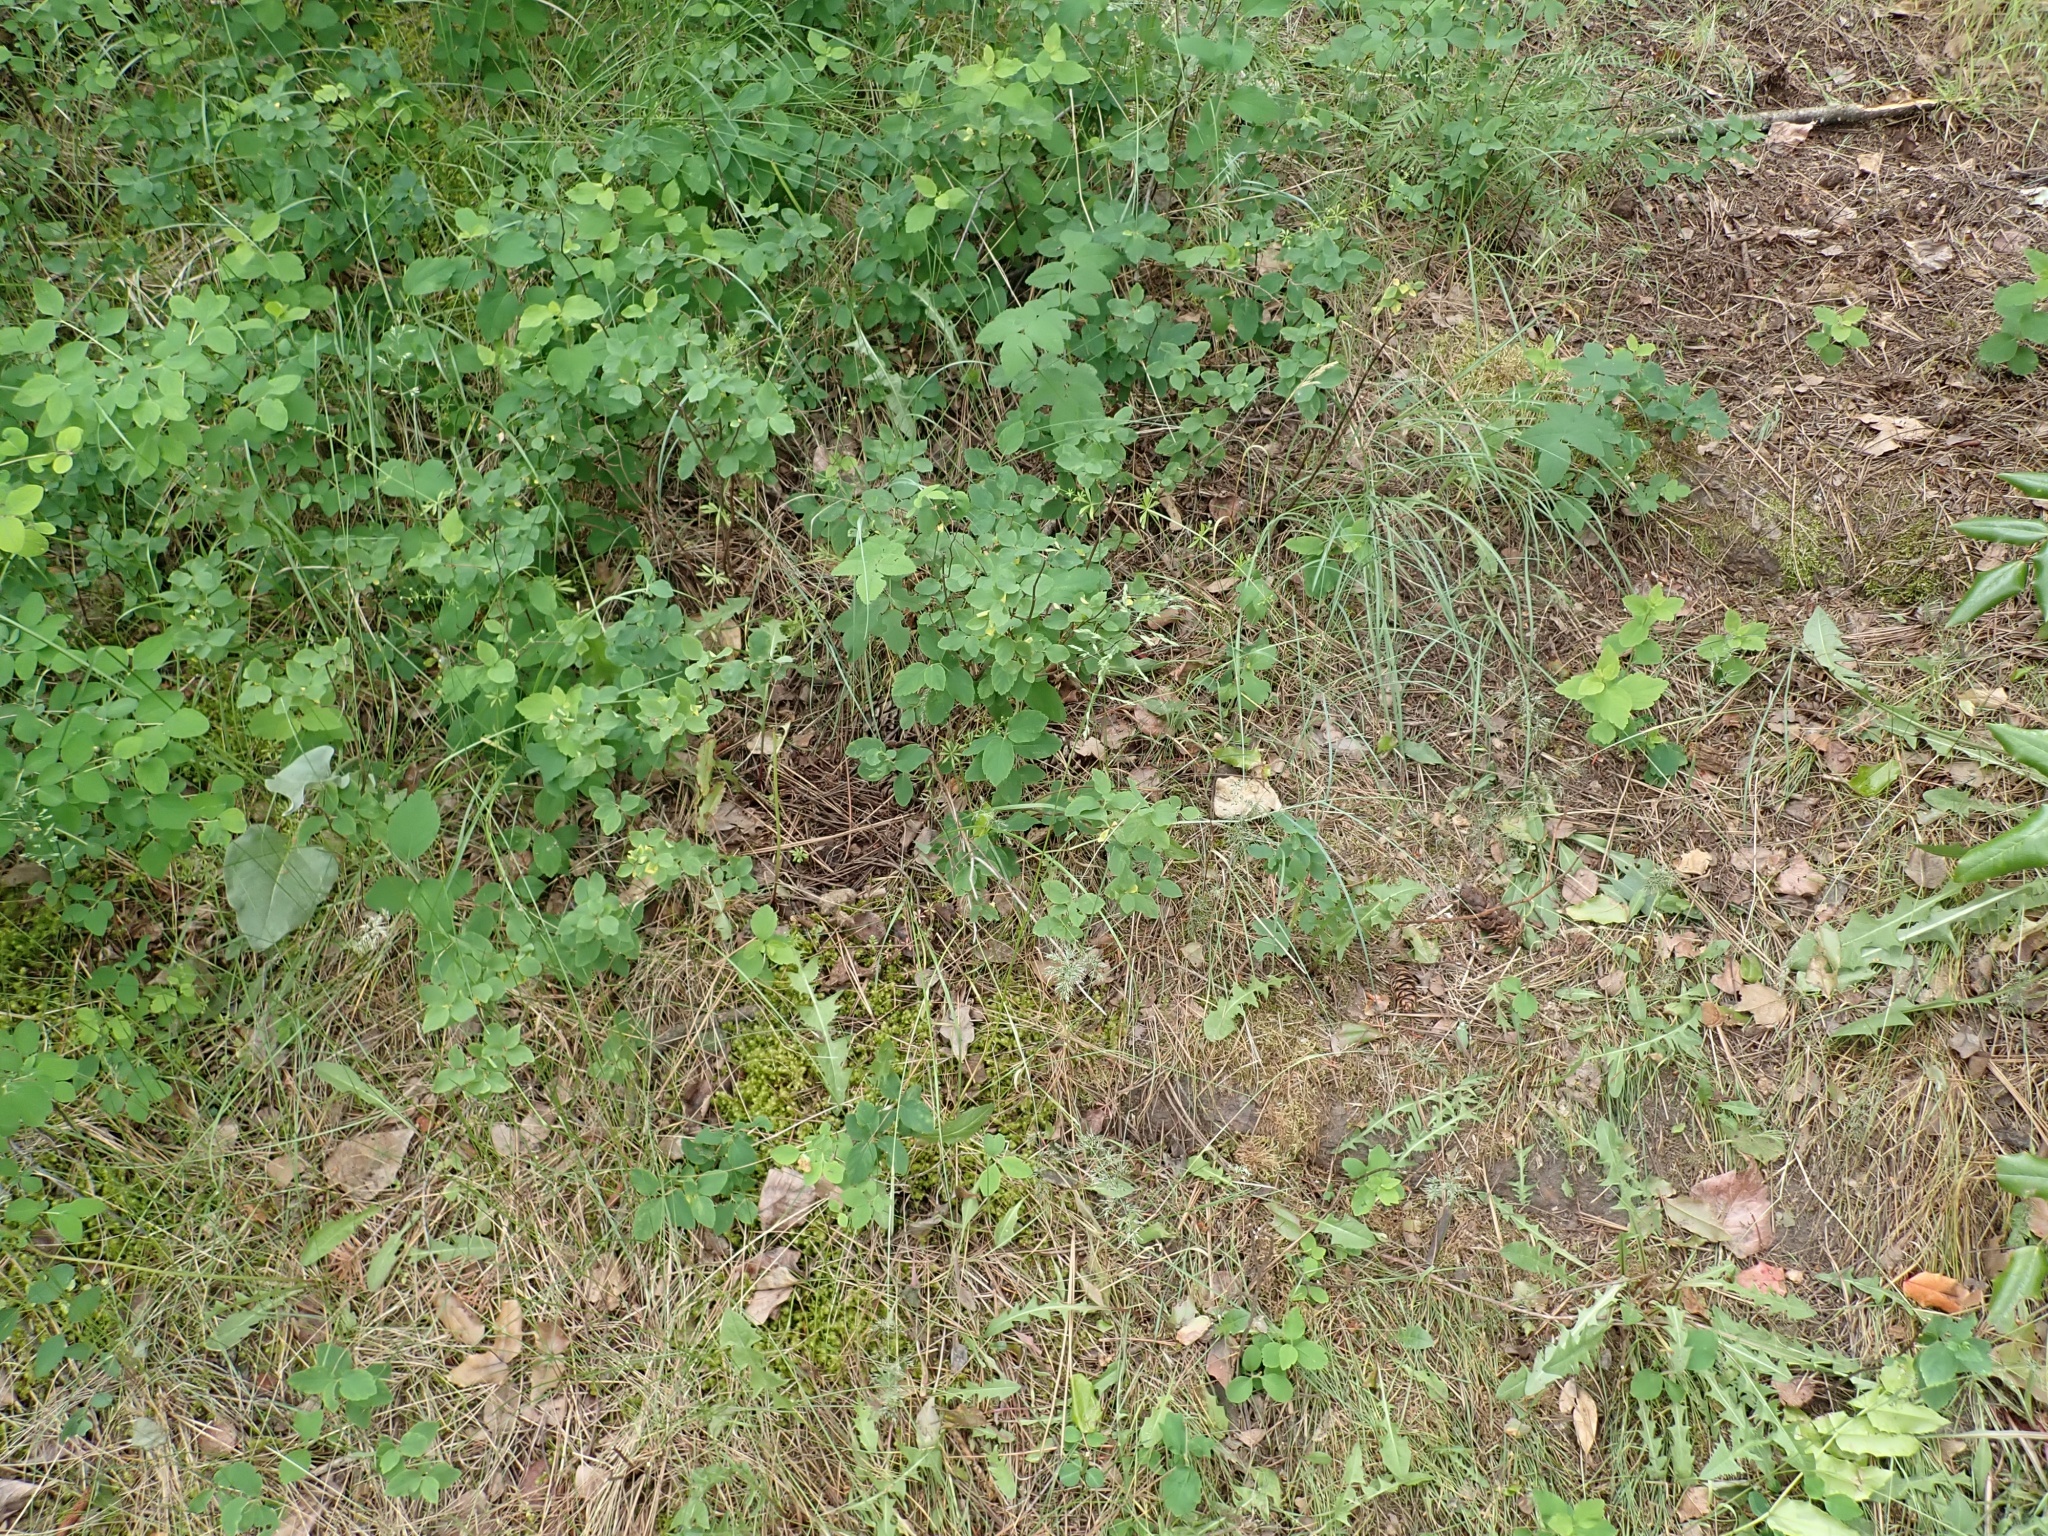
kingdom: Plantae
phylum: Tracheophyta
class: Liliopsida
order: Poales
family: Poaceae
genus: Poa
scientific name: Poa bulbosa
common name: Bulbous bluegrass
